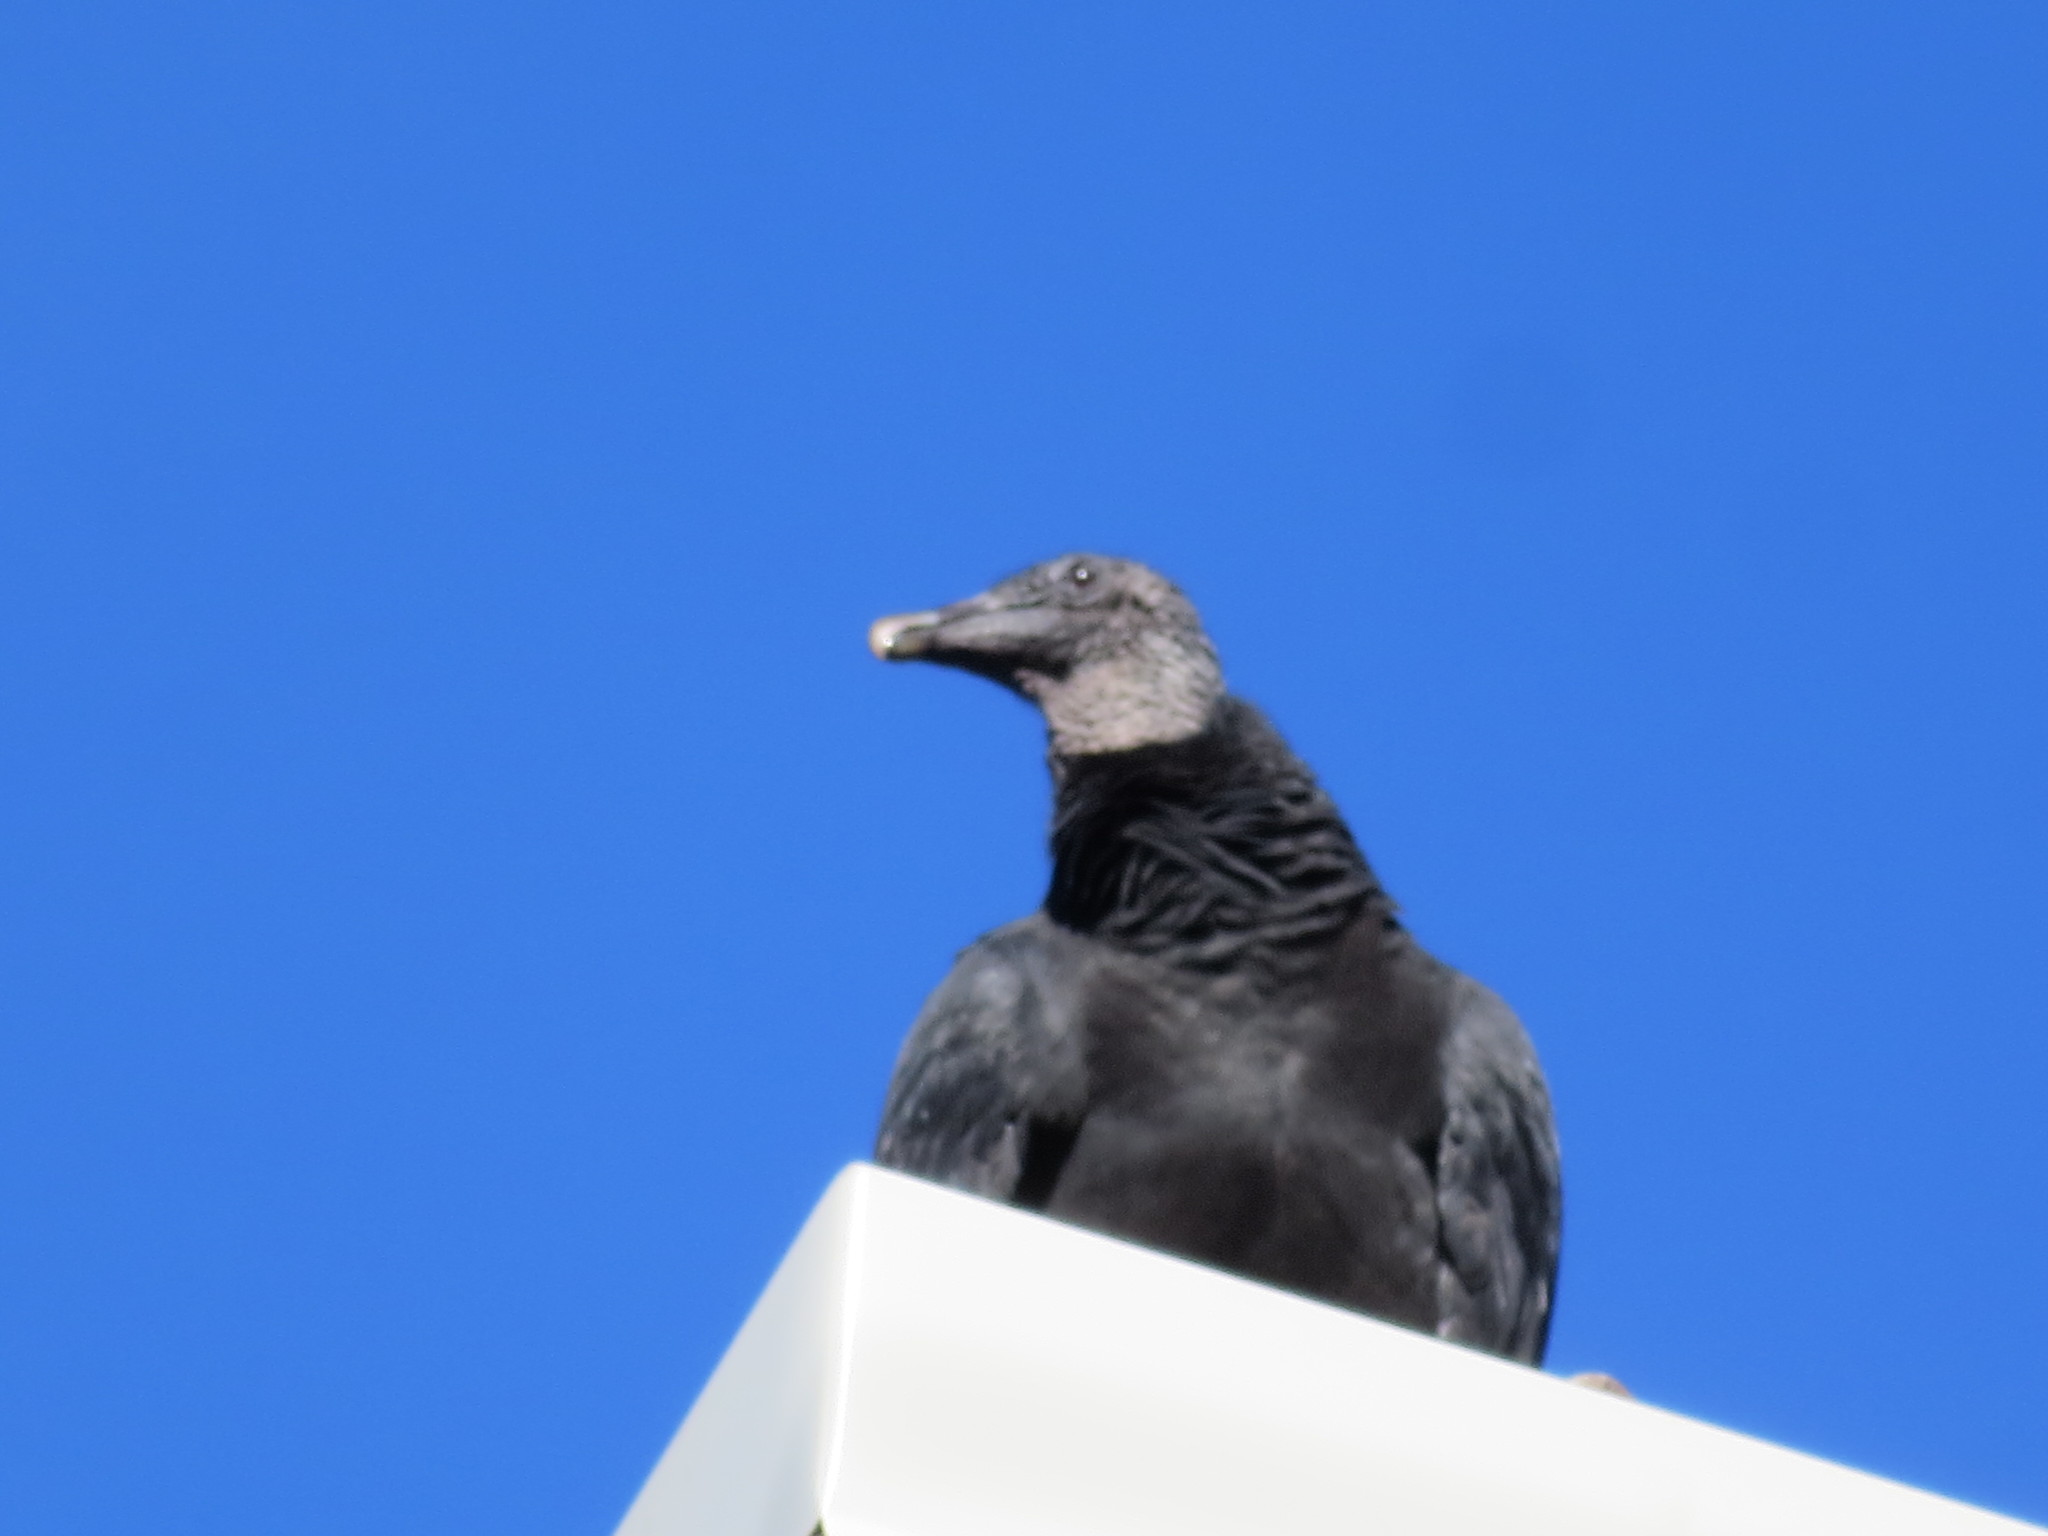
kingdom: Animalia
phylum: Chordata
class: Aves
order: Accipitriformes
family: Cathartidae
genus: Coragyps
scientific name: Coragyps atratus
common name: Black vulture
